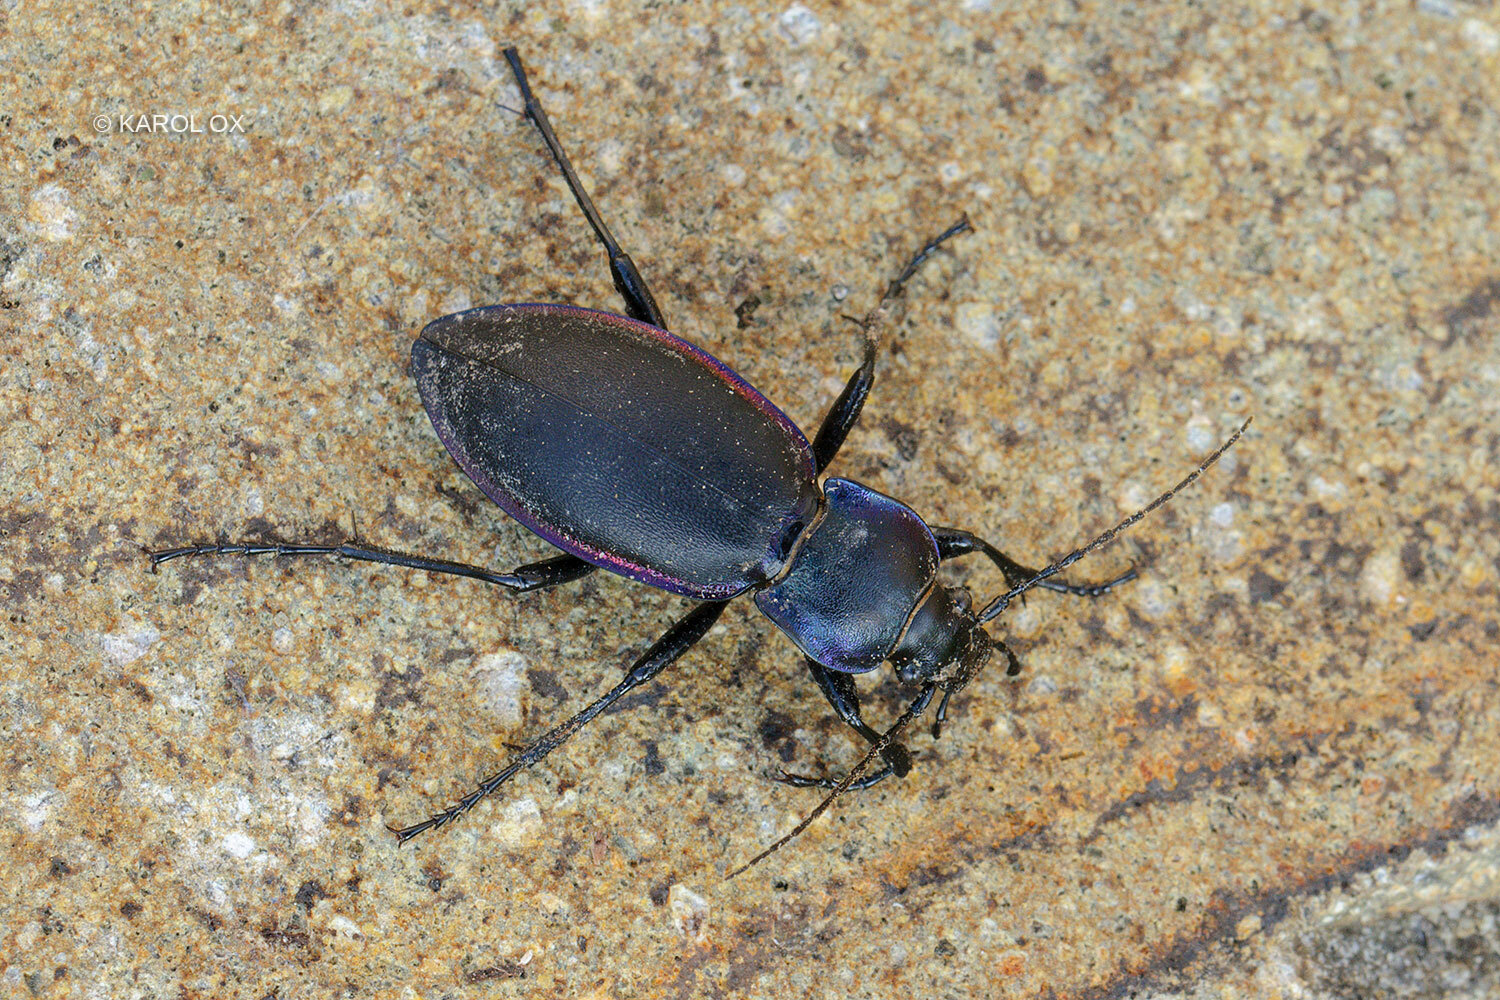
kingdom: Animalia
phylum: Arthropoda
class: Insecta
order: Coleoptera
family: Carabidae
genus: Carabus
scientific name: Carabus violaceus
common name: Violet ground beetle
